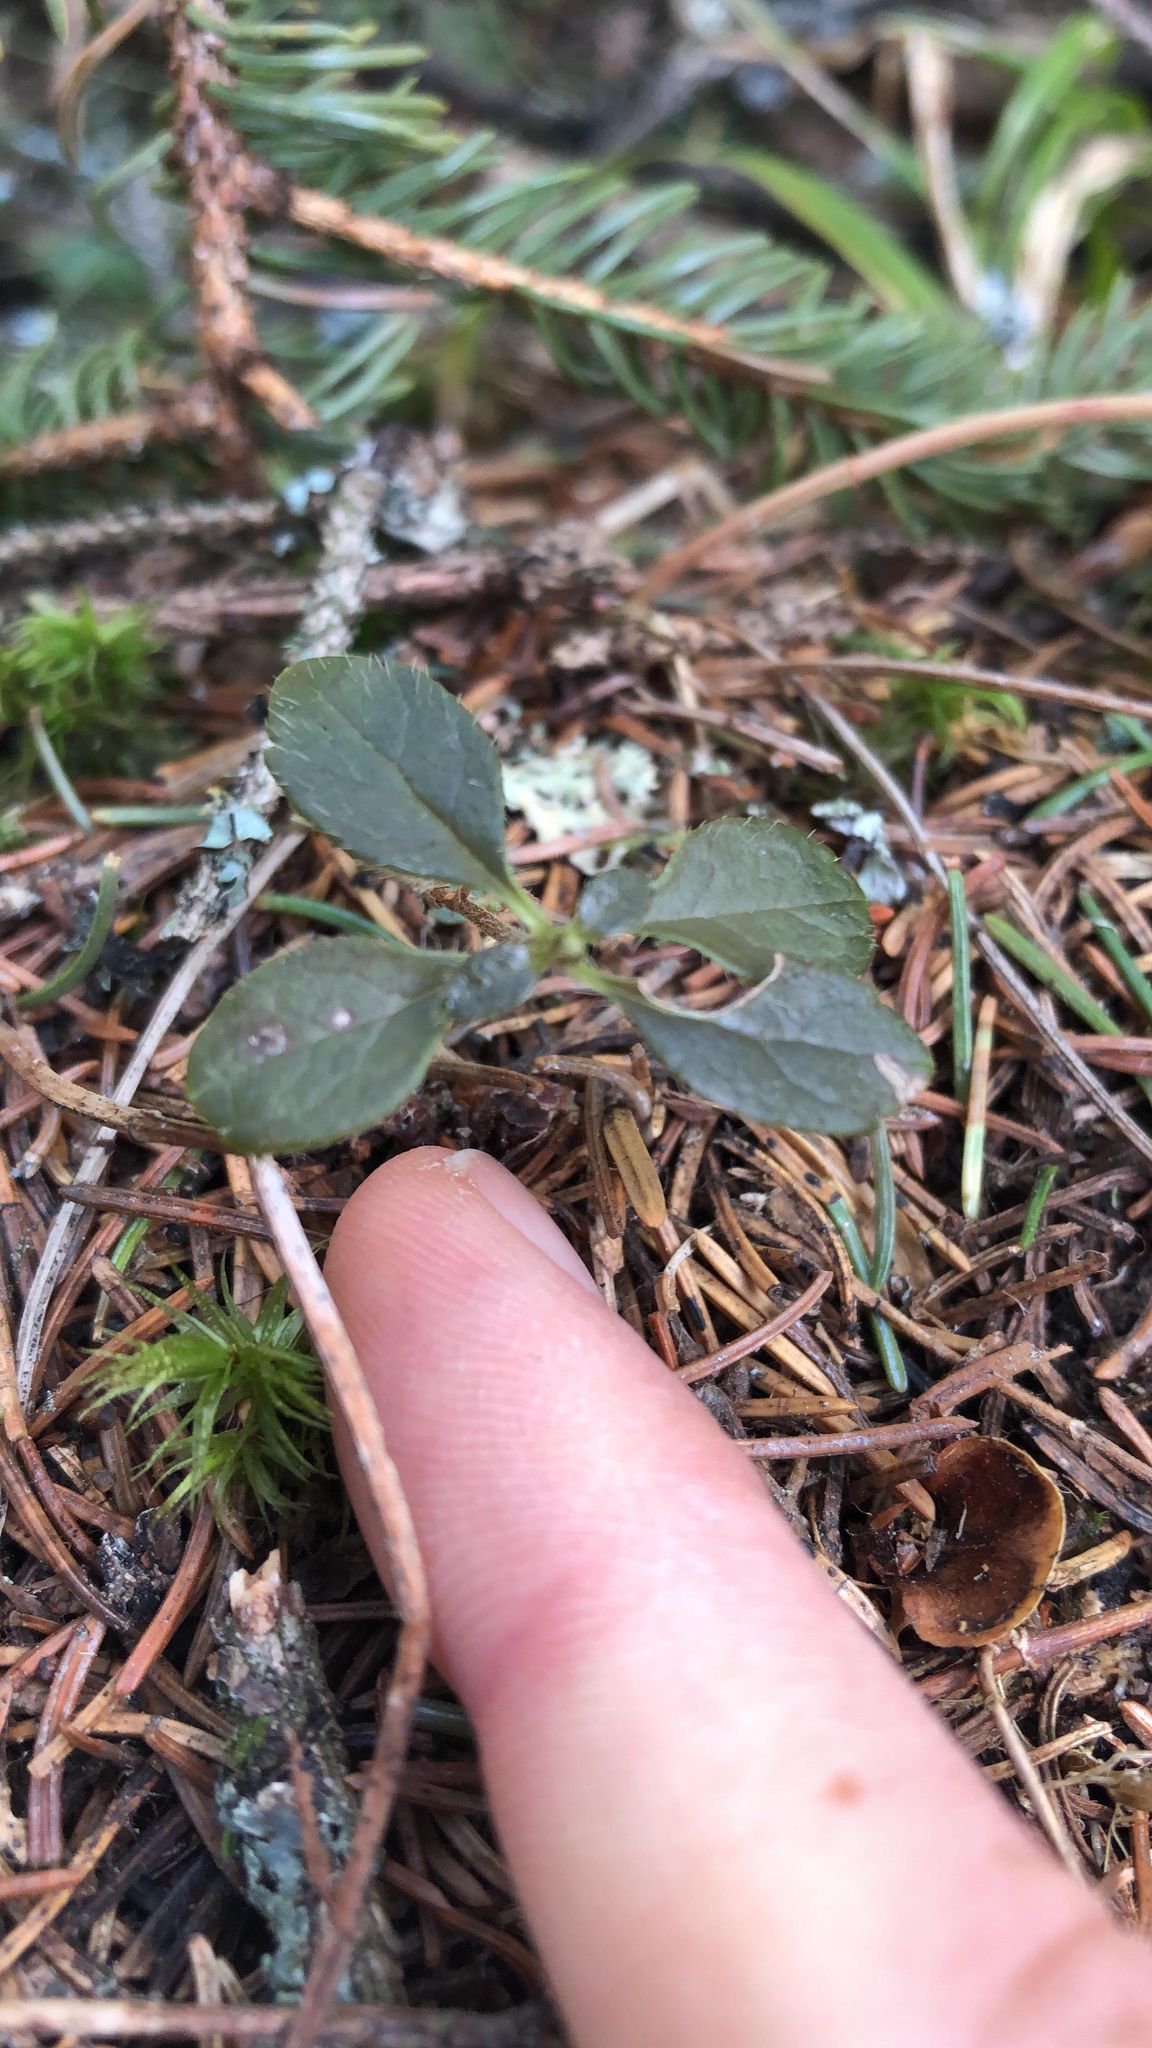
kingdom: Plantae
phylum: Tracheophyta
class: Magnoliopsida
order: Ericales
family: Ericaceae
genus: Chimaphila
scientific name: Chimaphila umbellata
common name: Pipsissewa
